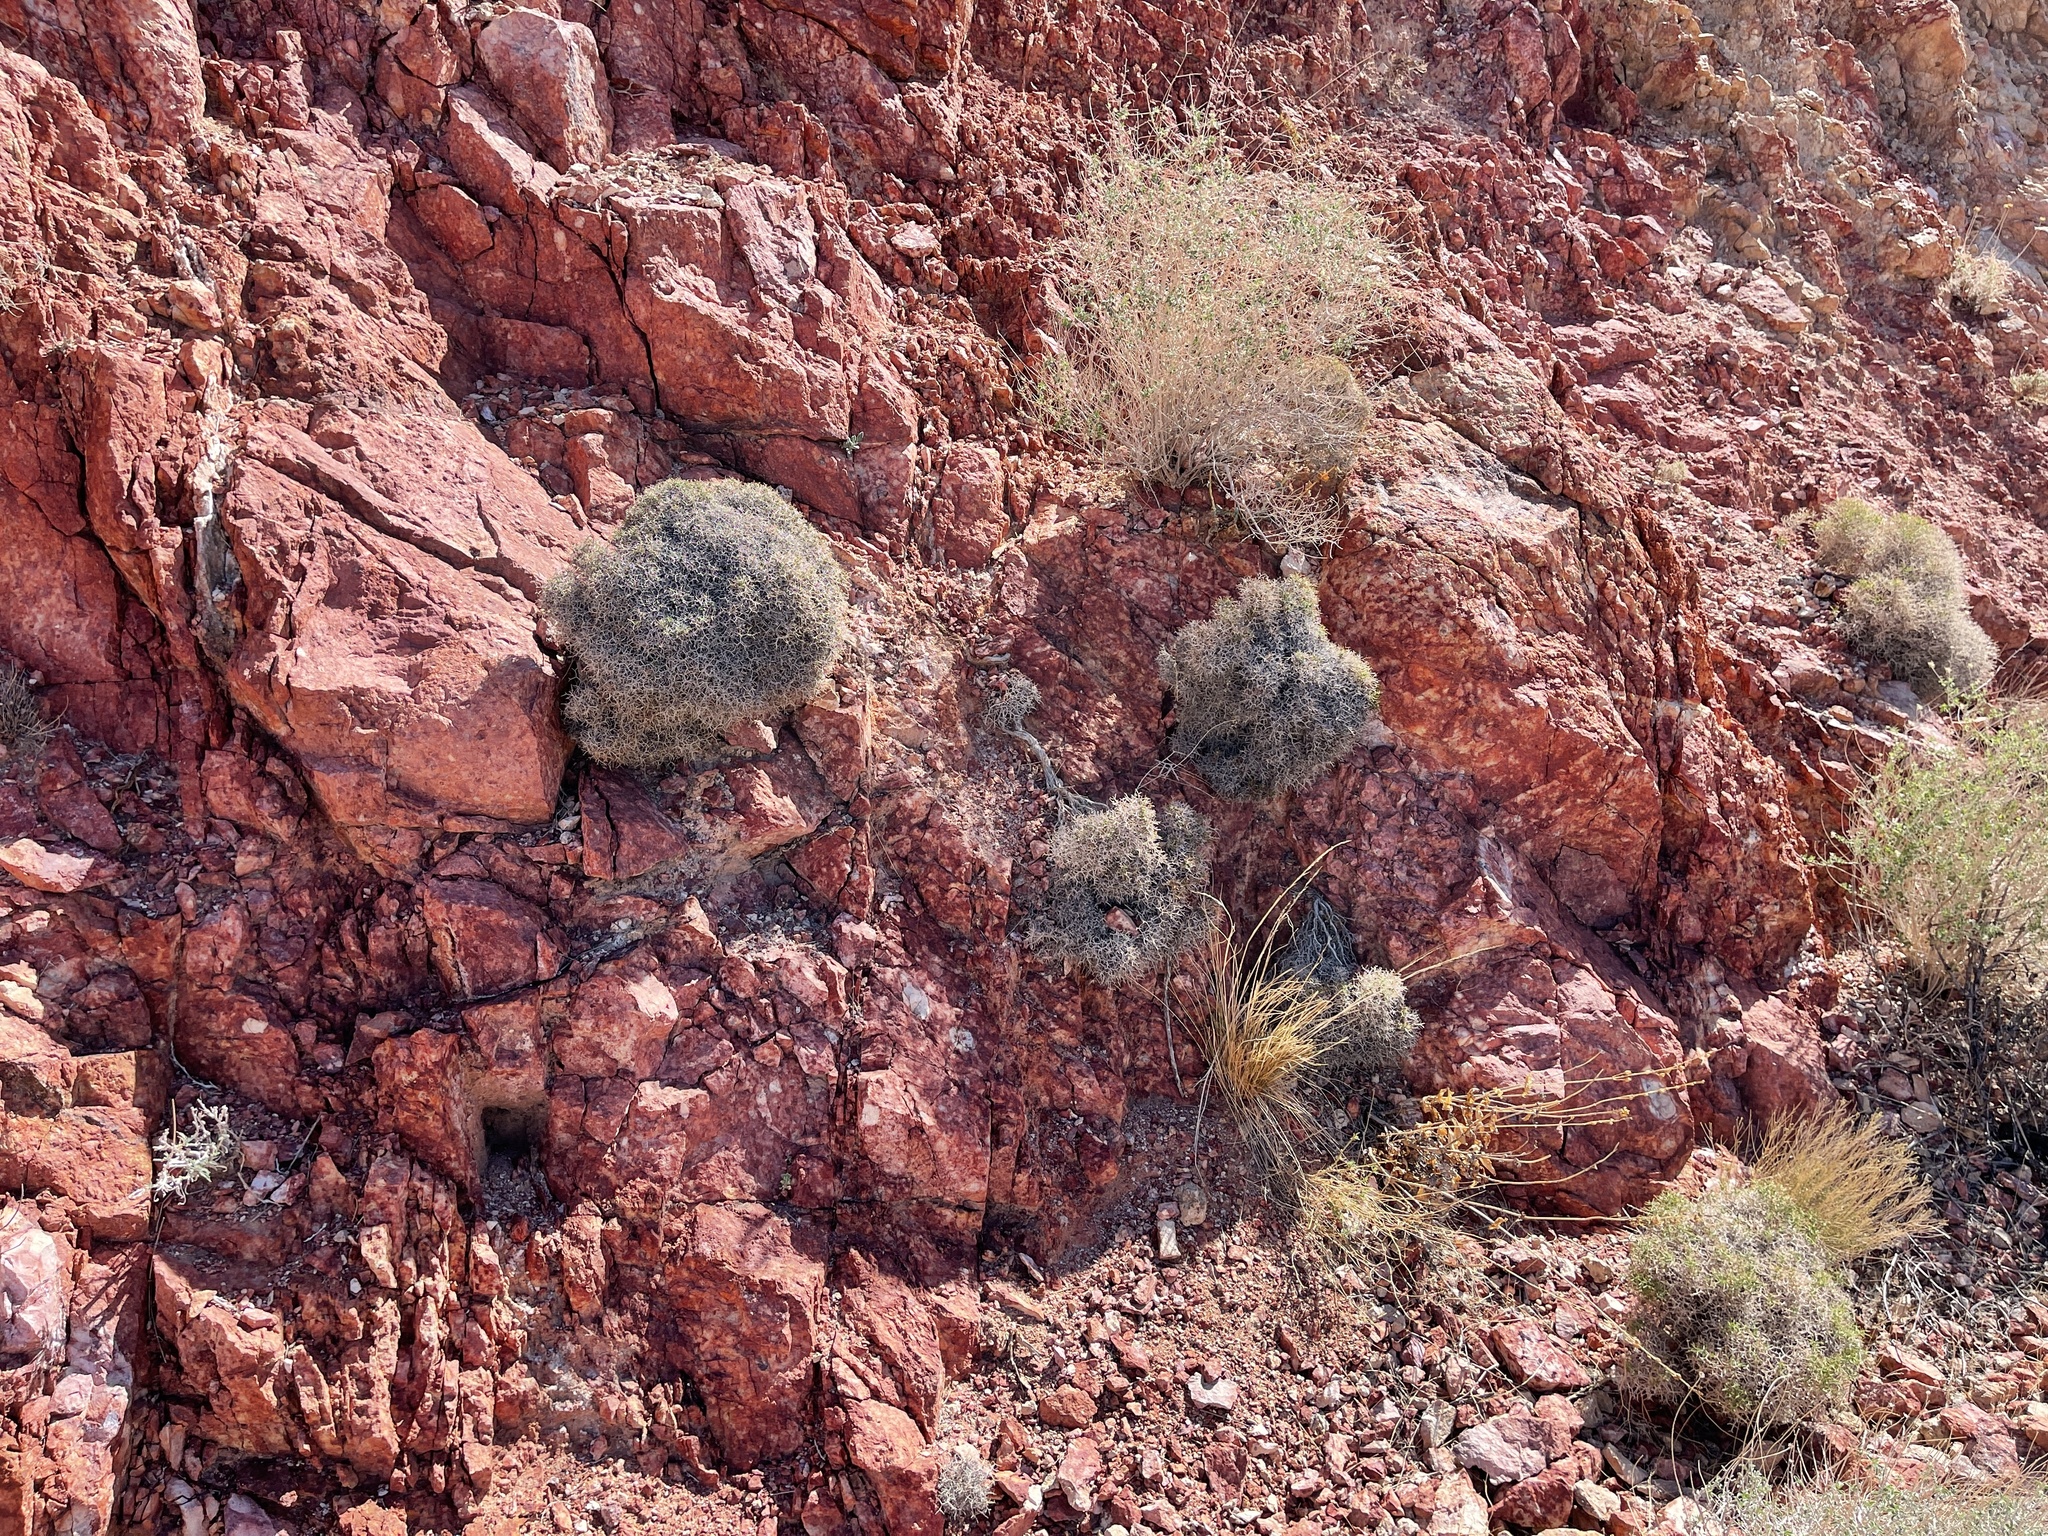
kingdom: Plantae
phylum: Tracheophyta
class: Magnoliopsida
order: Caryophyllales
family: Polygonaceae
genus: Eriogonum
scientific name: Eriogonum heermannii
